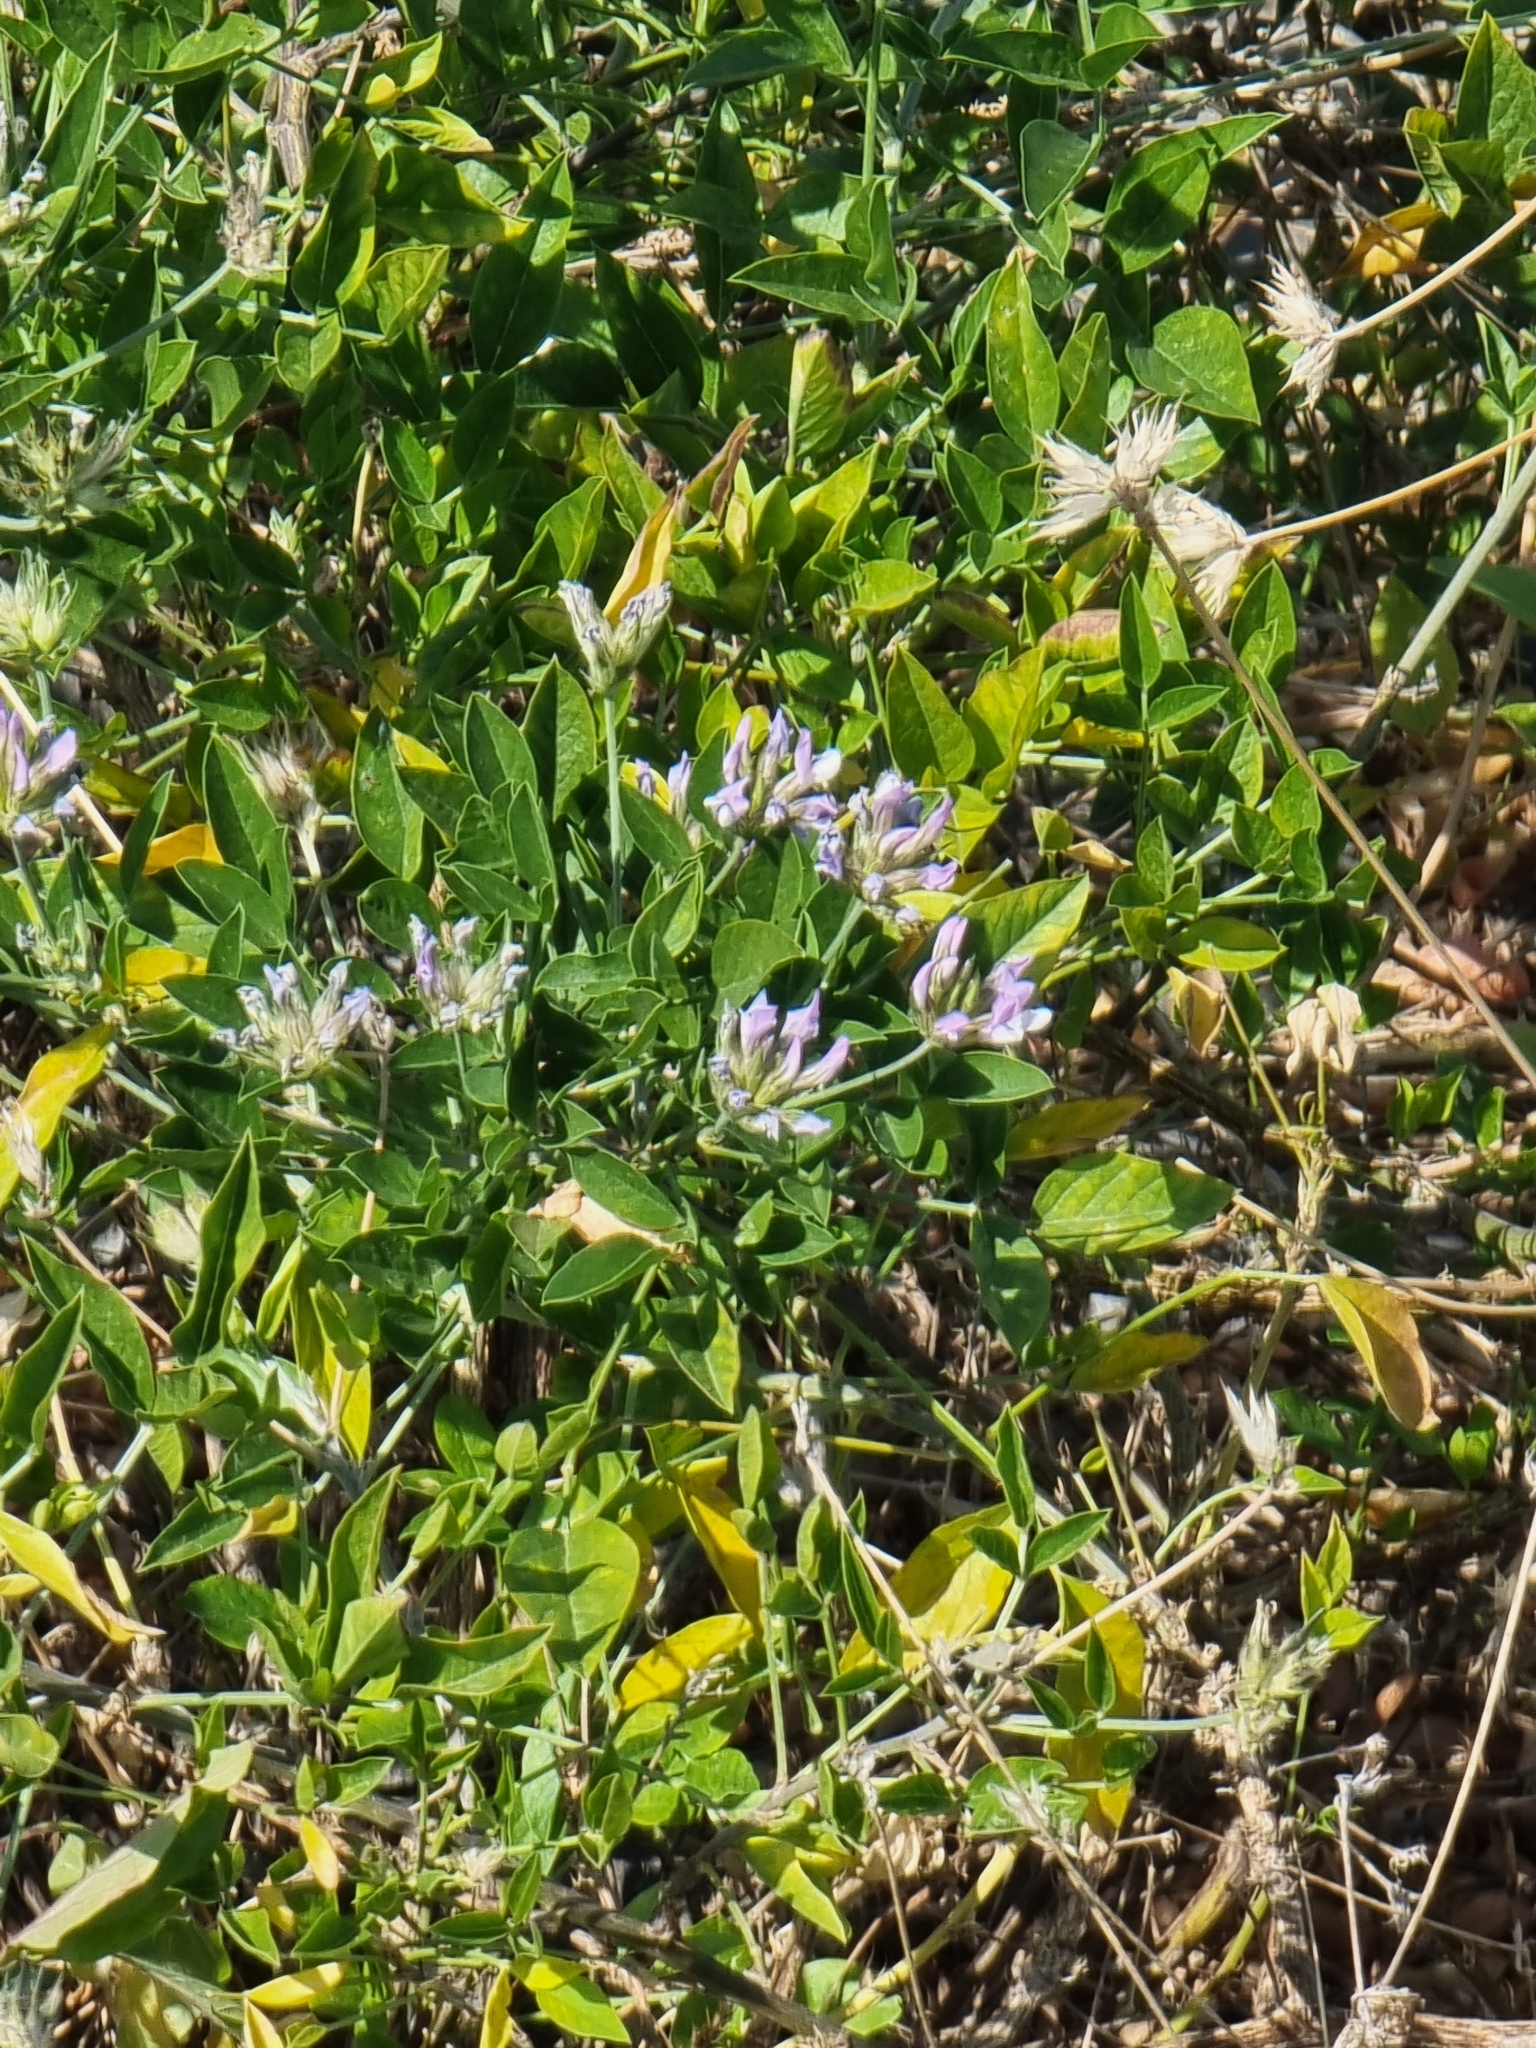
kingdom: Plantae
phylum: Tracheophyta
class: Magnoliopsida
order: Fabales
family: Fabaceae
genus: Bituminaria
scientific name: Bituminaria bituminosa
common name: Arabian pea
